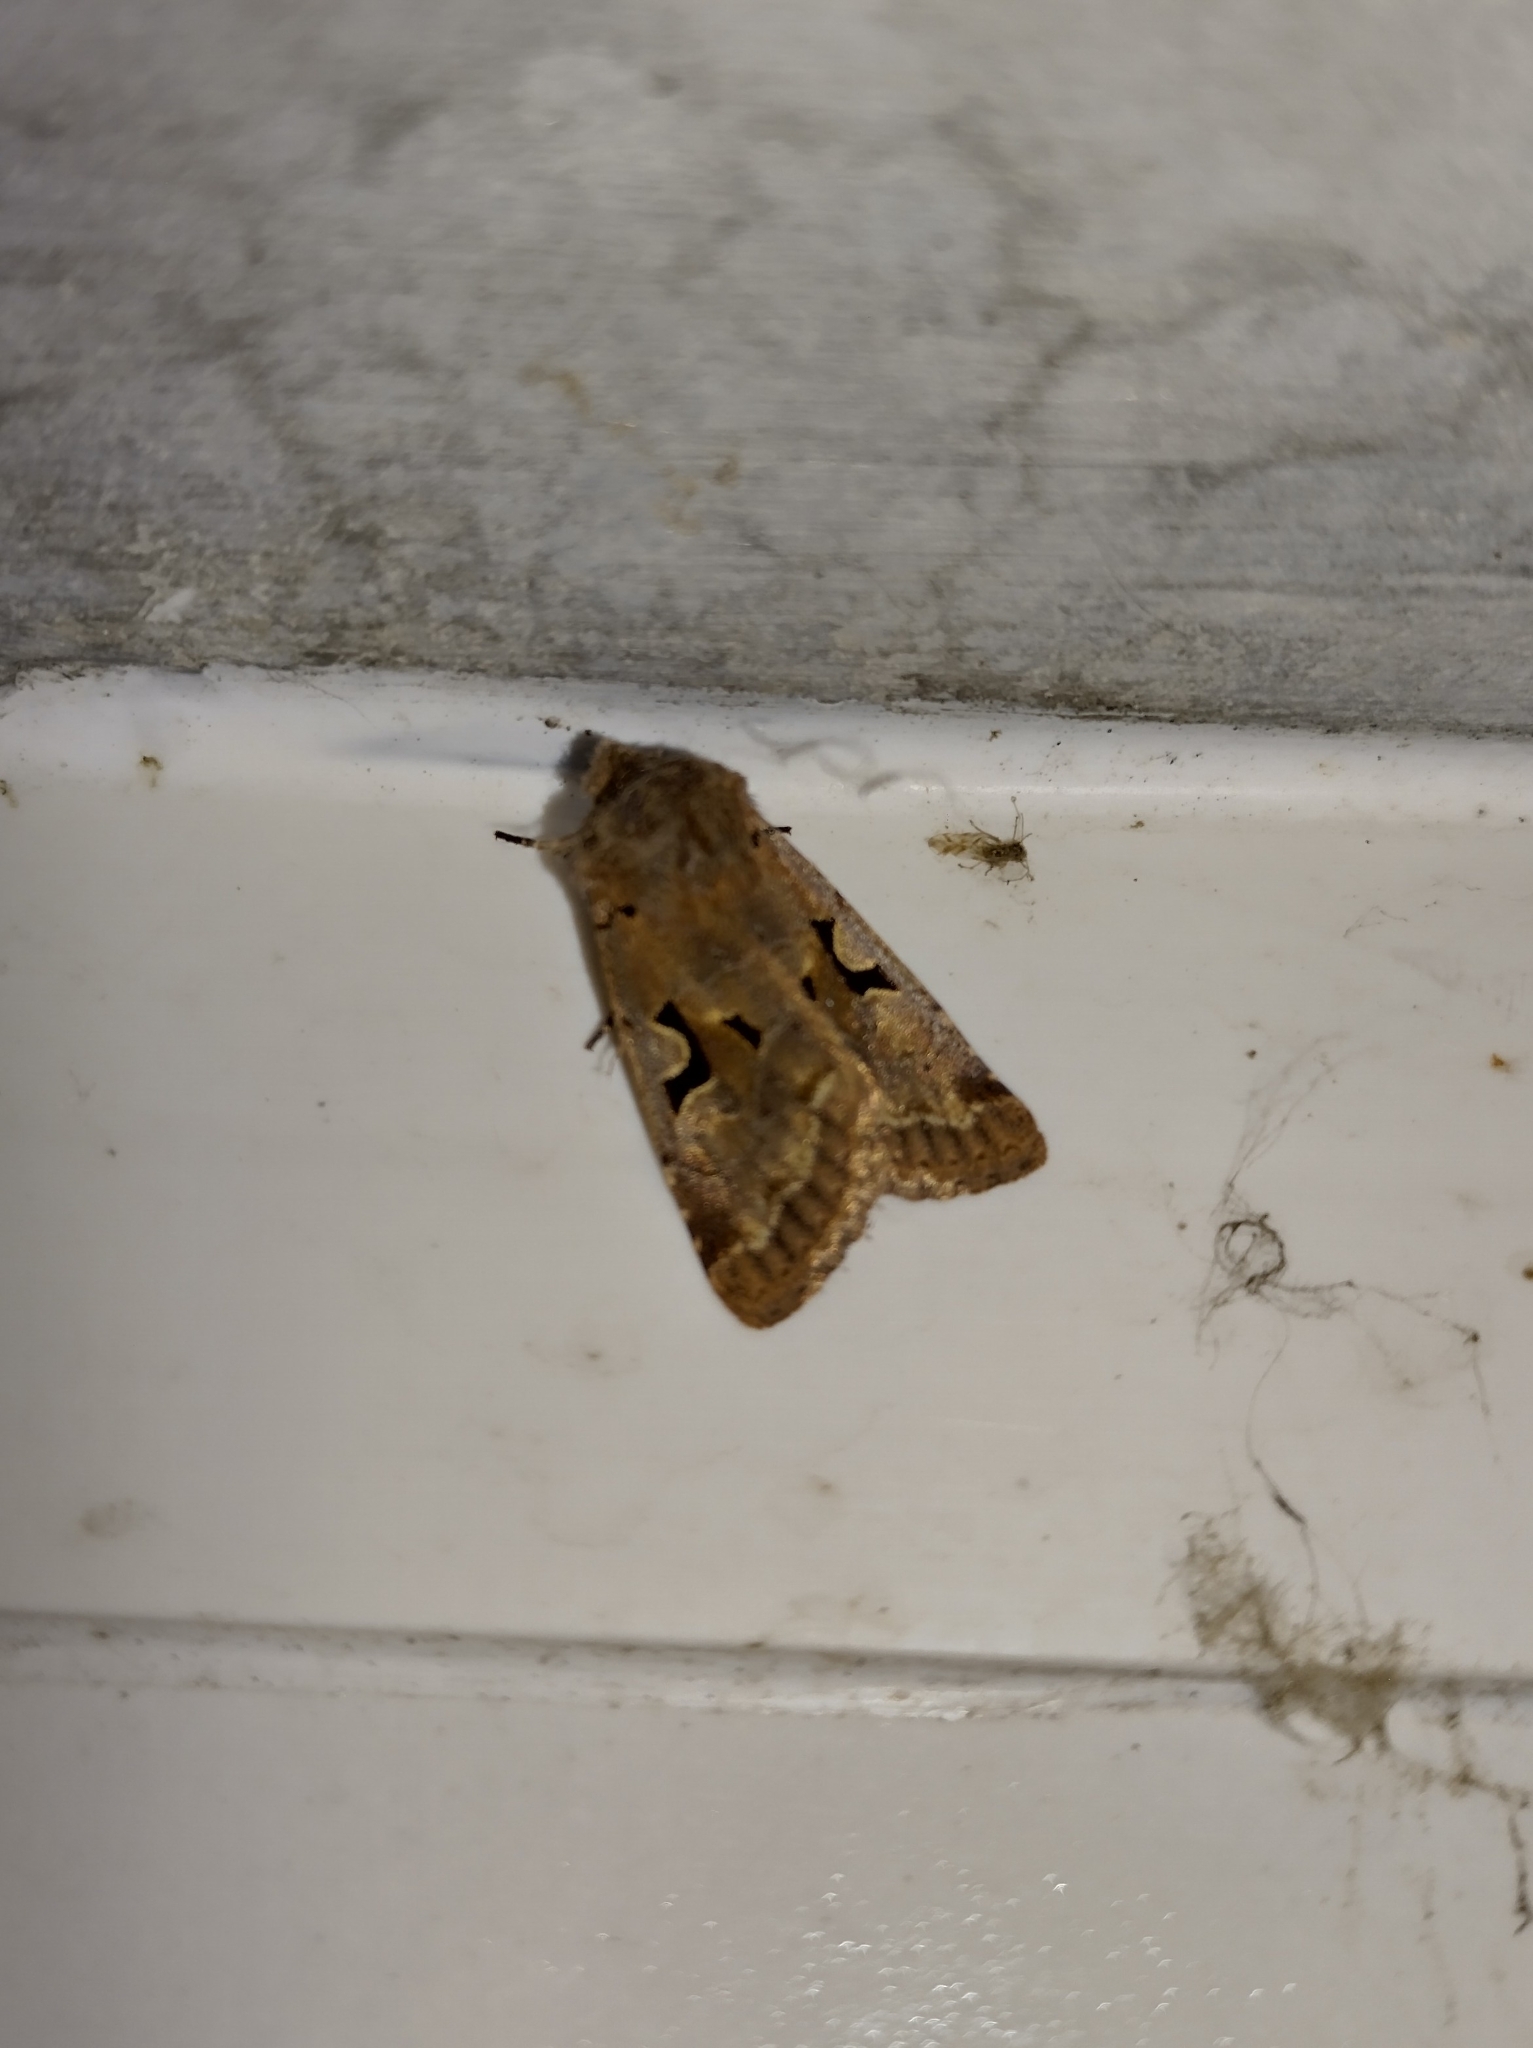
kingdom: Animalia
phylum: Arthropoda
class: Insecta
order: Lepidoptera
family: Noctuidae
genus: Orthosia
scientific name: Orthosia gothica
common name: Hebrew character
